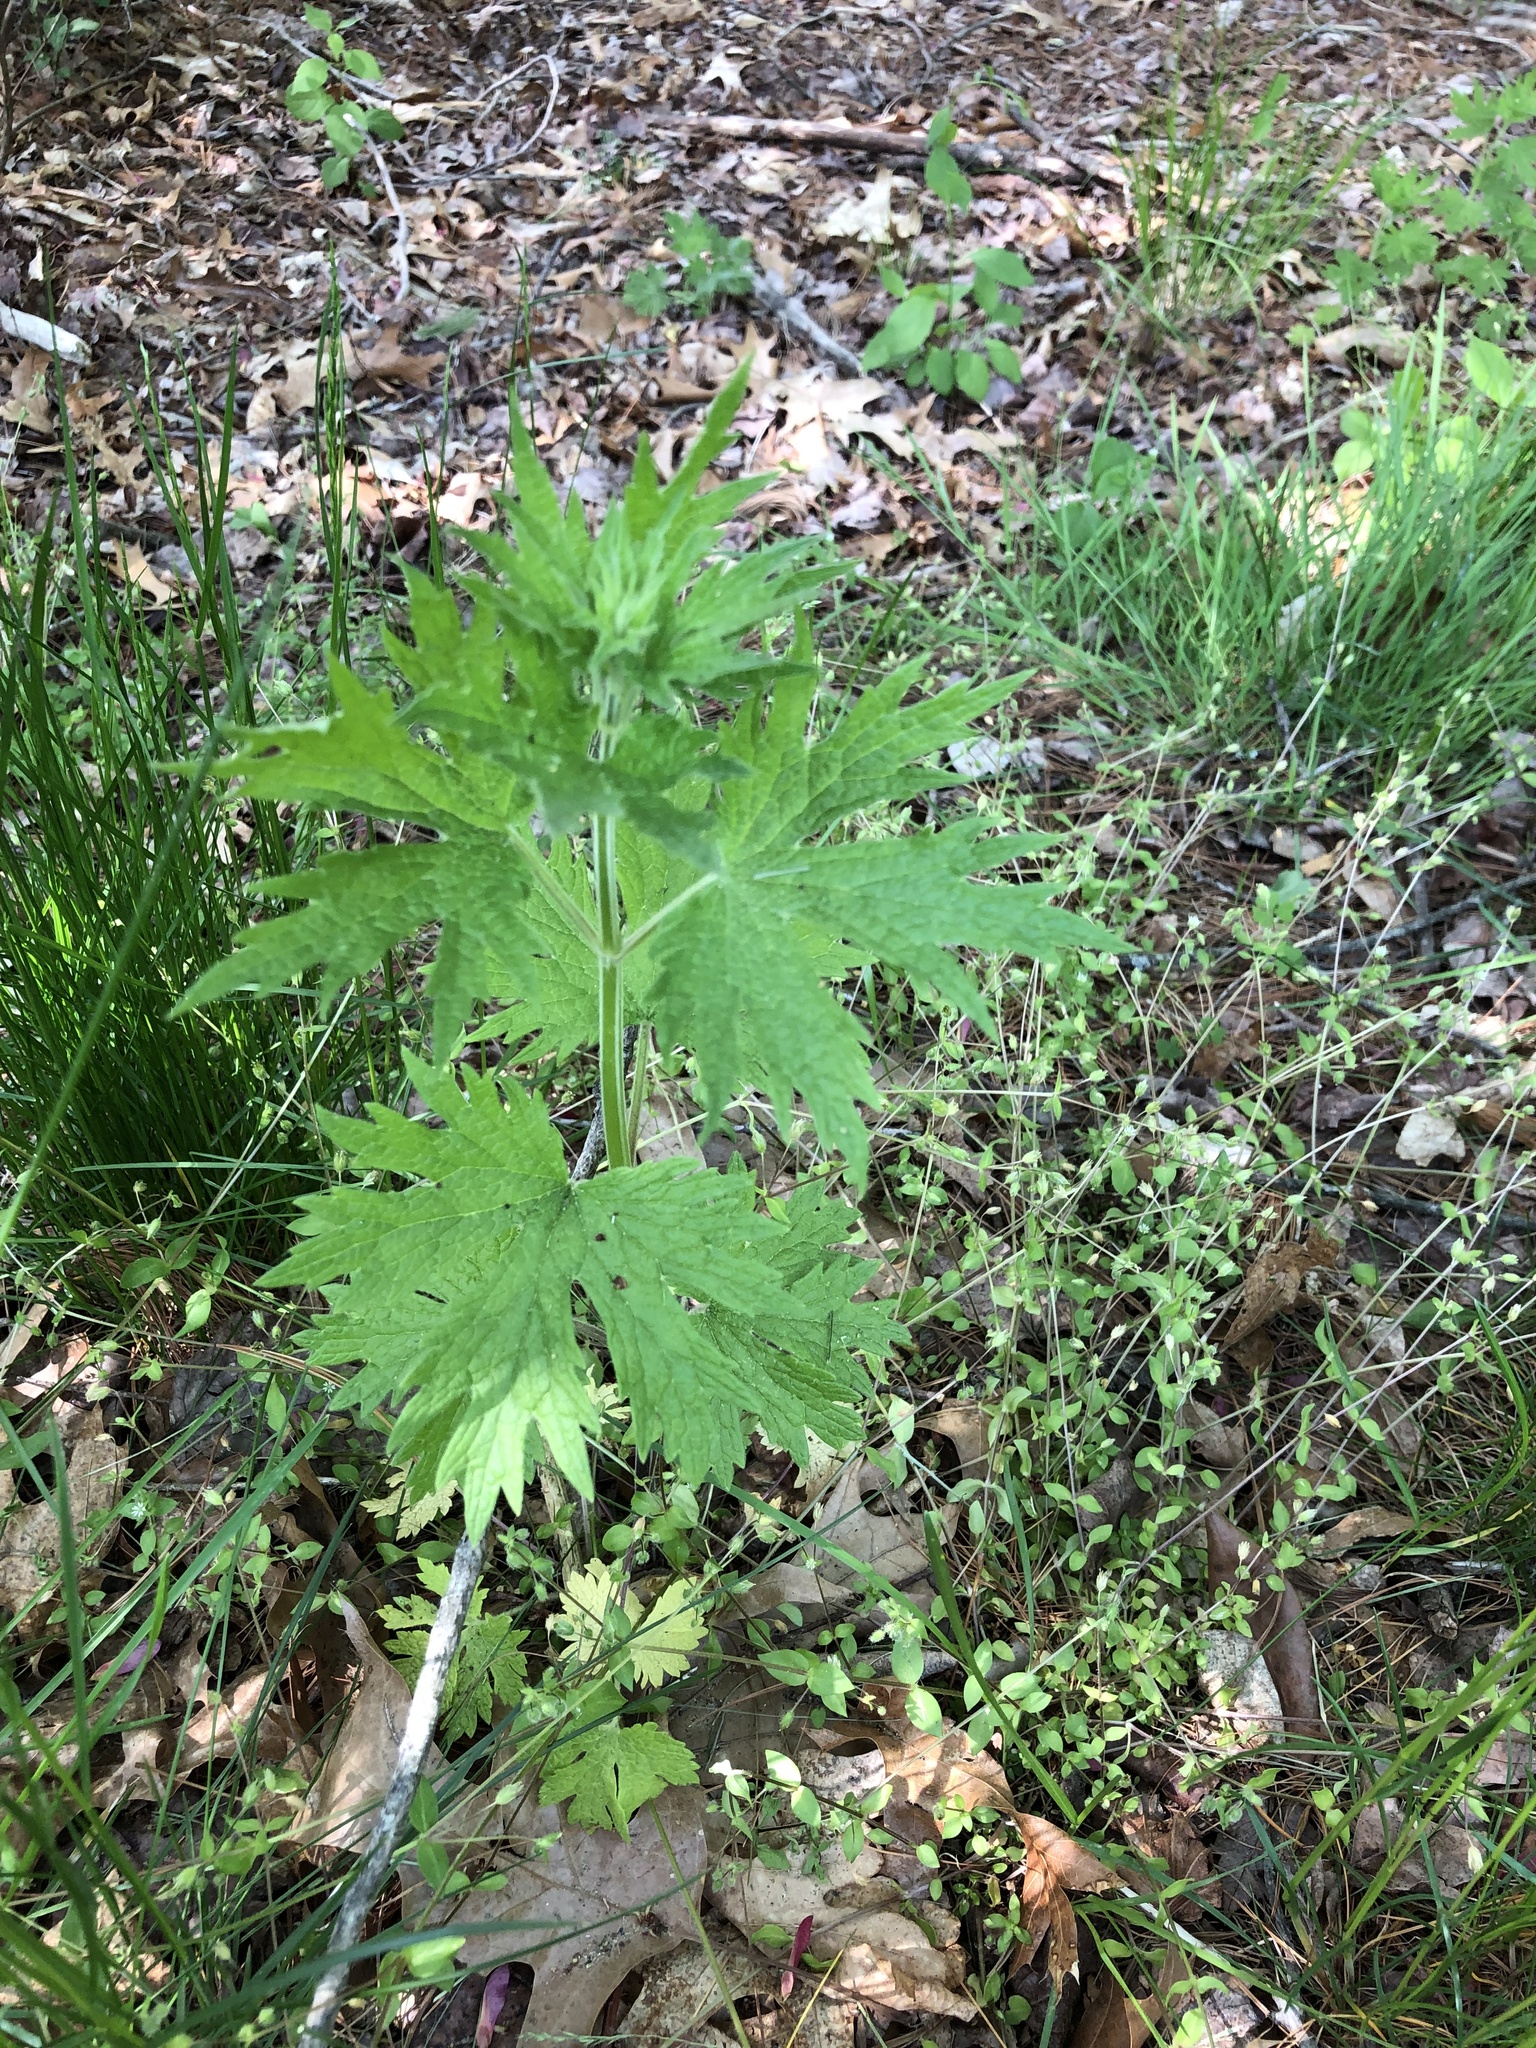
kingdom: Plantae
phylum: Tracheophyta
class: Magnoliopsida
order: Lamiales
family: Lamiaceae
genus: Leonurus
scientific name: Leonurus cardiaca
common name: Motherwort
